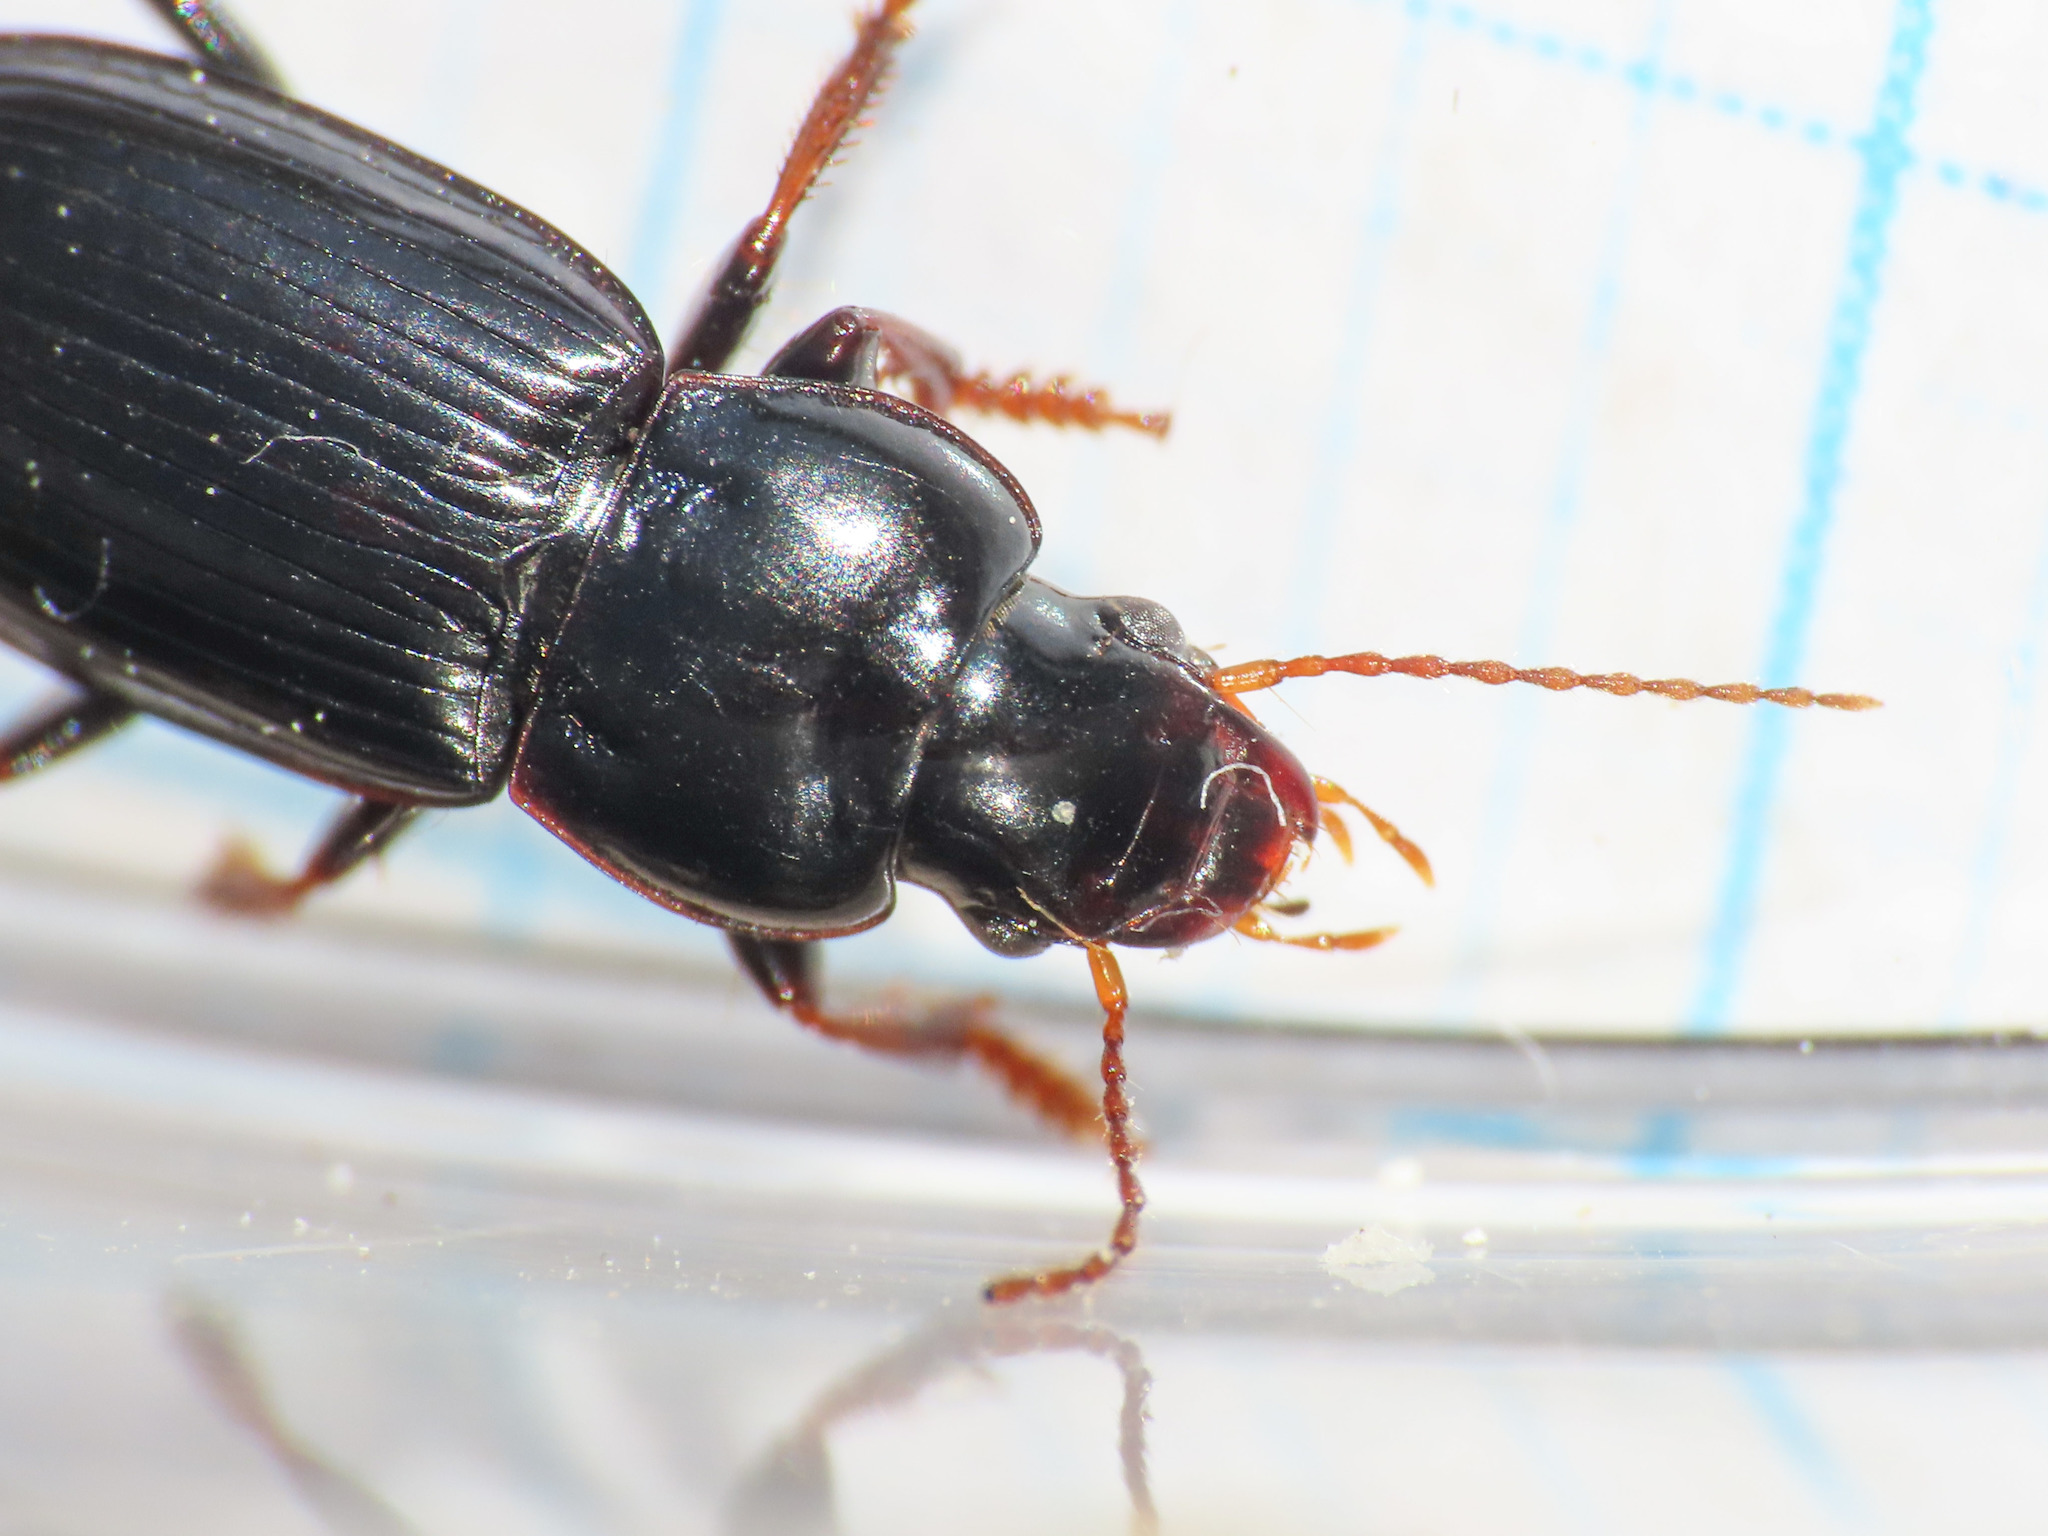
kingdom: Animalia
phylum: Arthropoda
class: Insecta
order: Coleoptera
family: Carabidae
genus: Harpalus
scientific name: Harpalus sulphuripes
